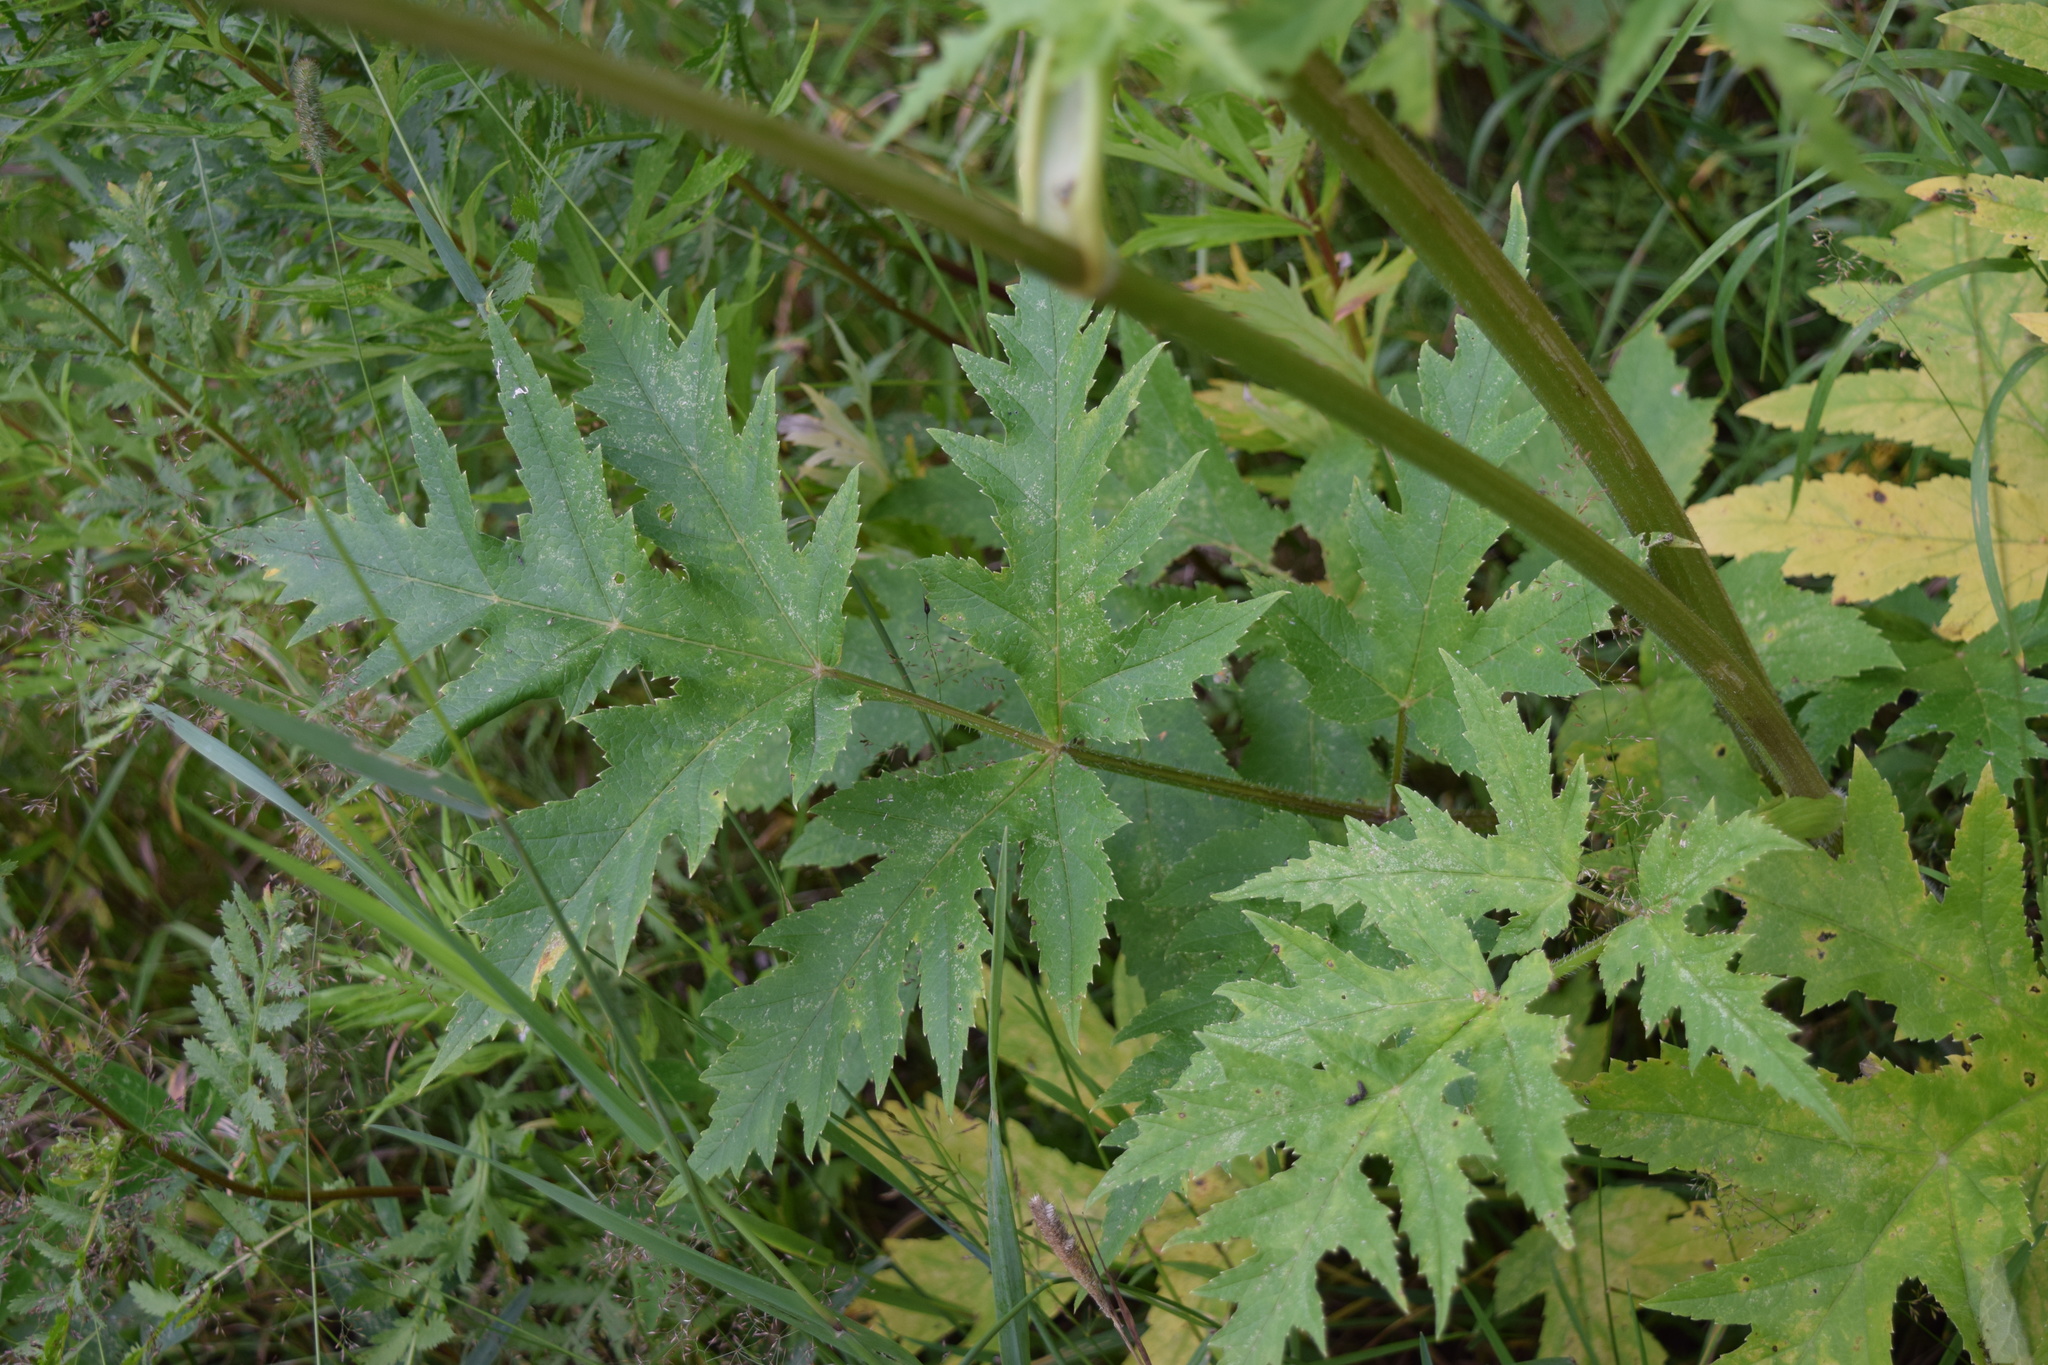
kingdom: Plantae
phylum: Tracheophyta
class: Magnoliopsida
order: Apiales
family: Apiaceae
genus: Heracleum
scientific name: Heracleum sphondylium
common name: Hogweed
